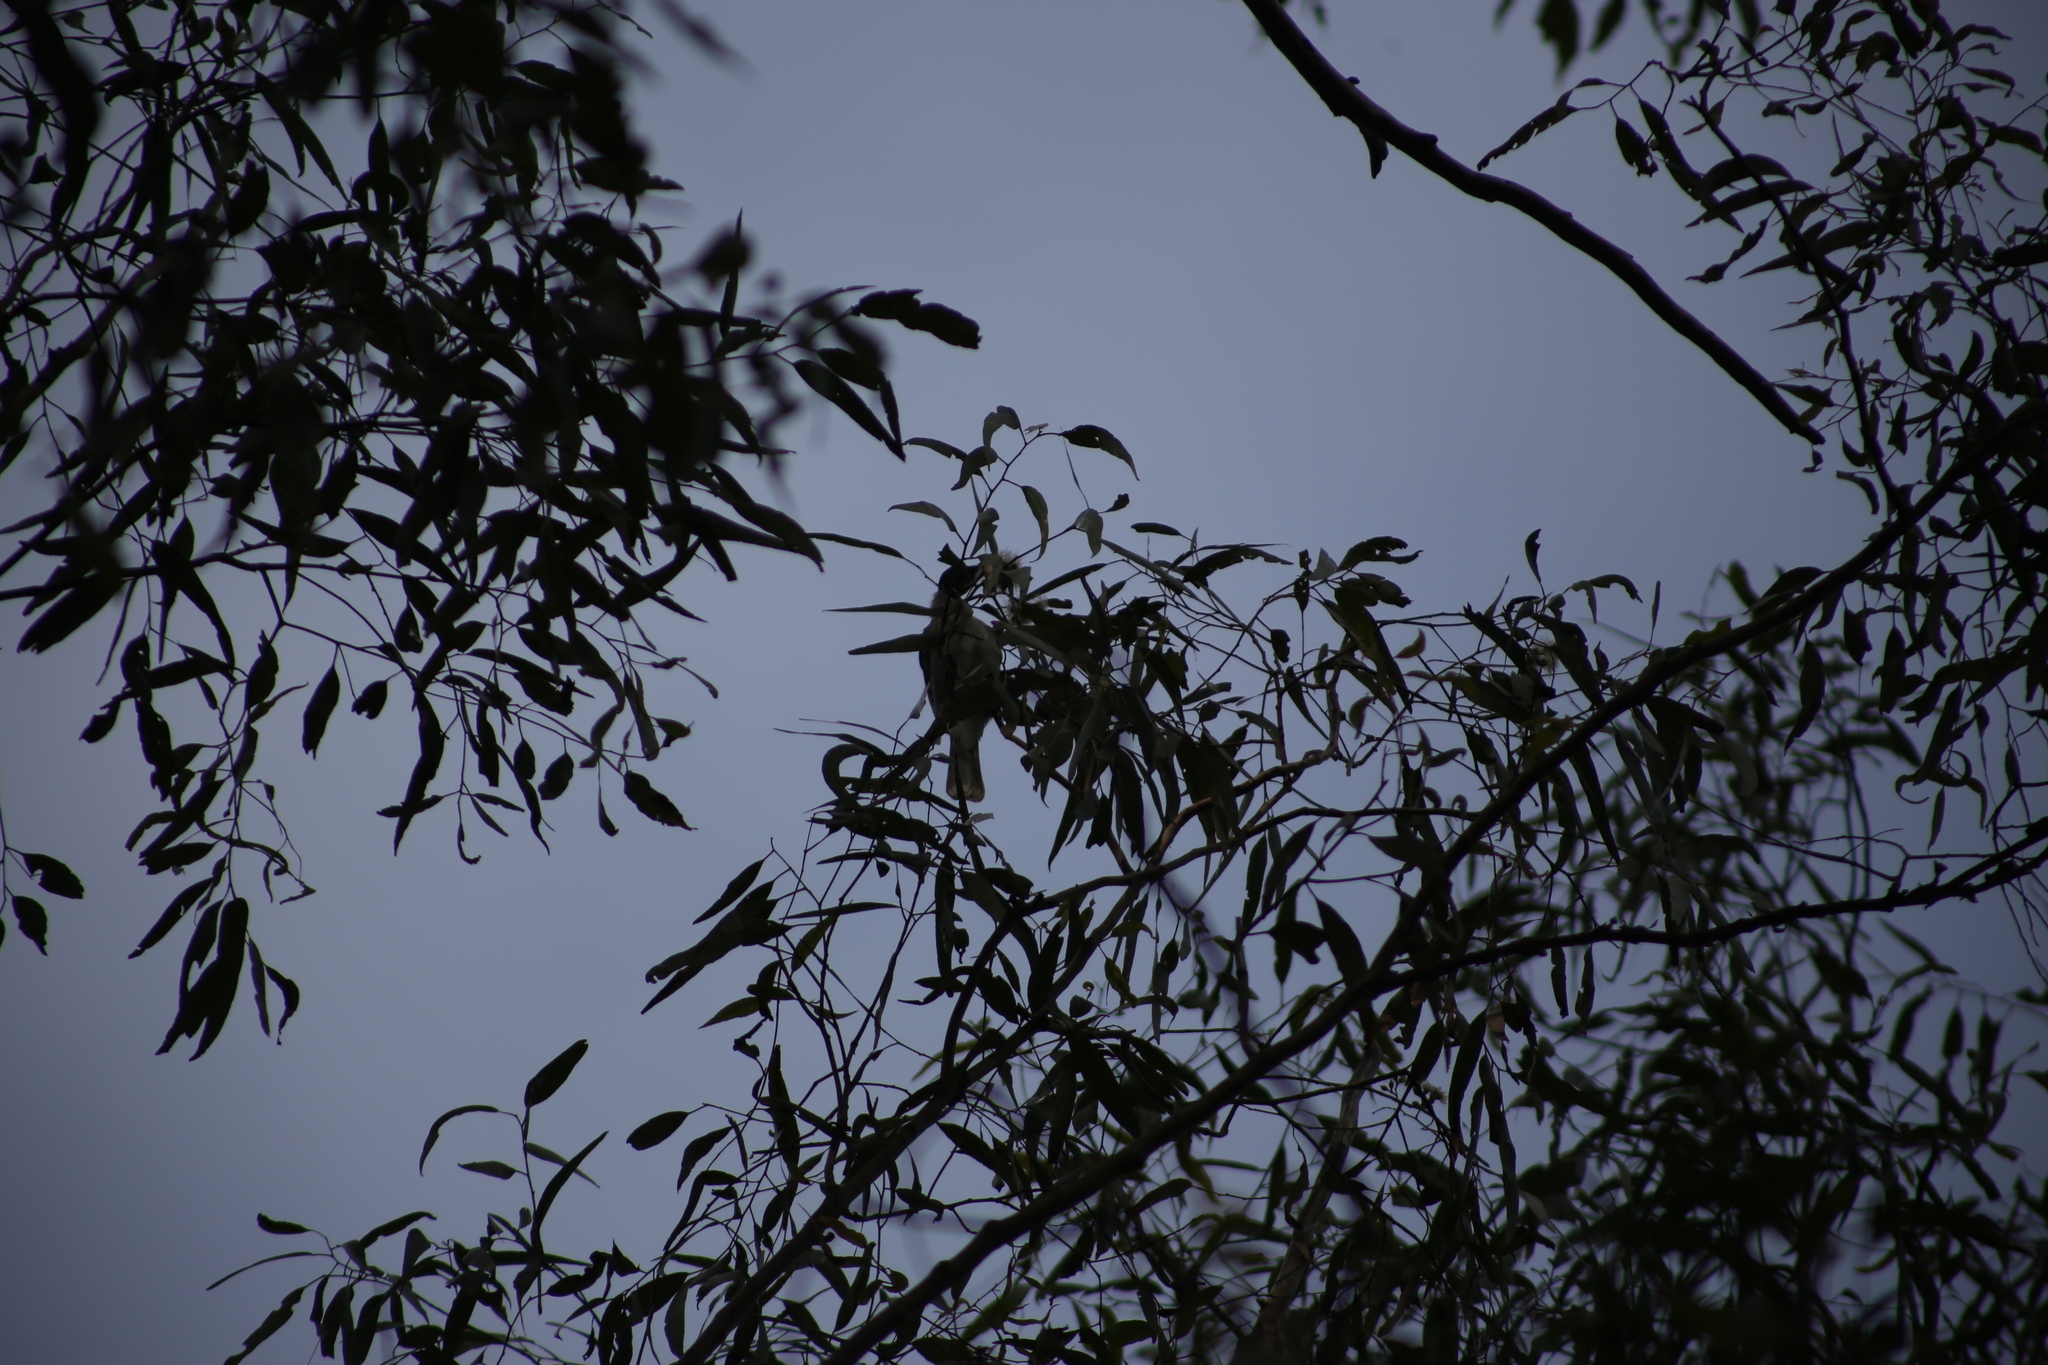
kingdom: Animalia
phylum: Chordata
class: Aves
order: Passeriformes
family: Meliphagidae
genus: Philemon
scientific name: Philemon corniculatus
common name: Noisy friarbird
